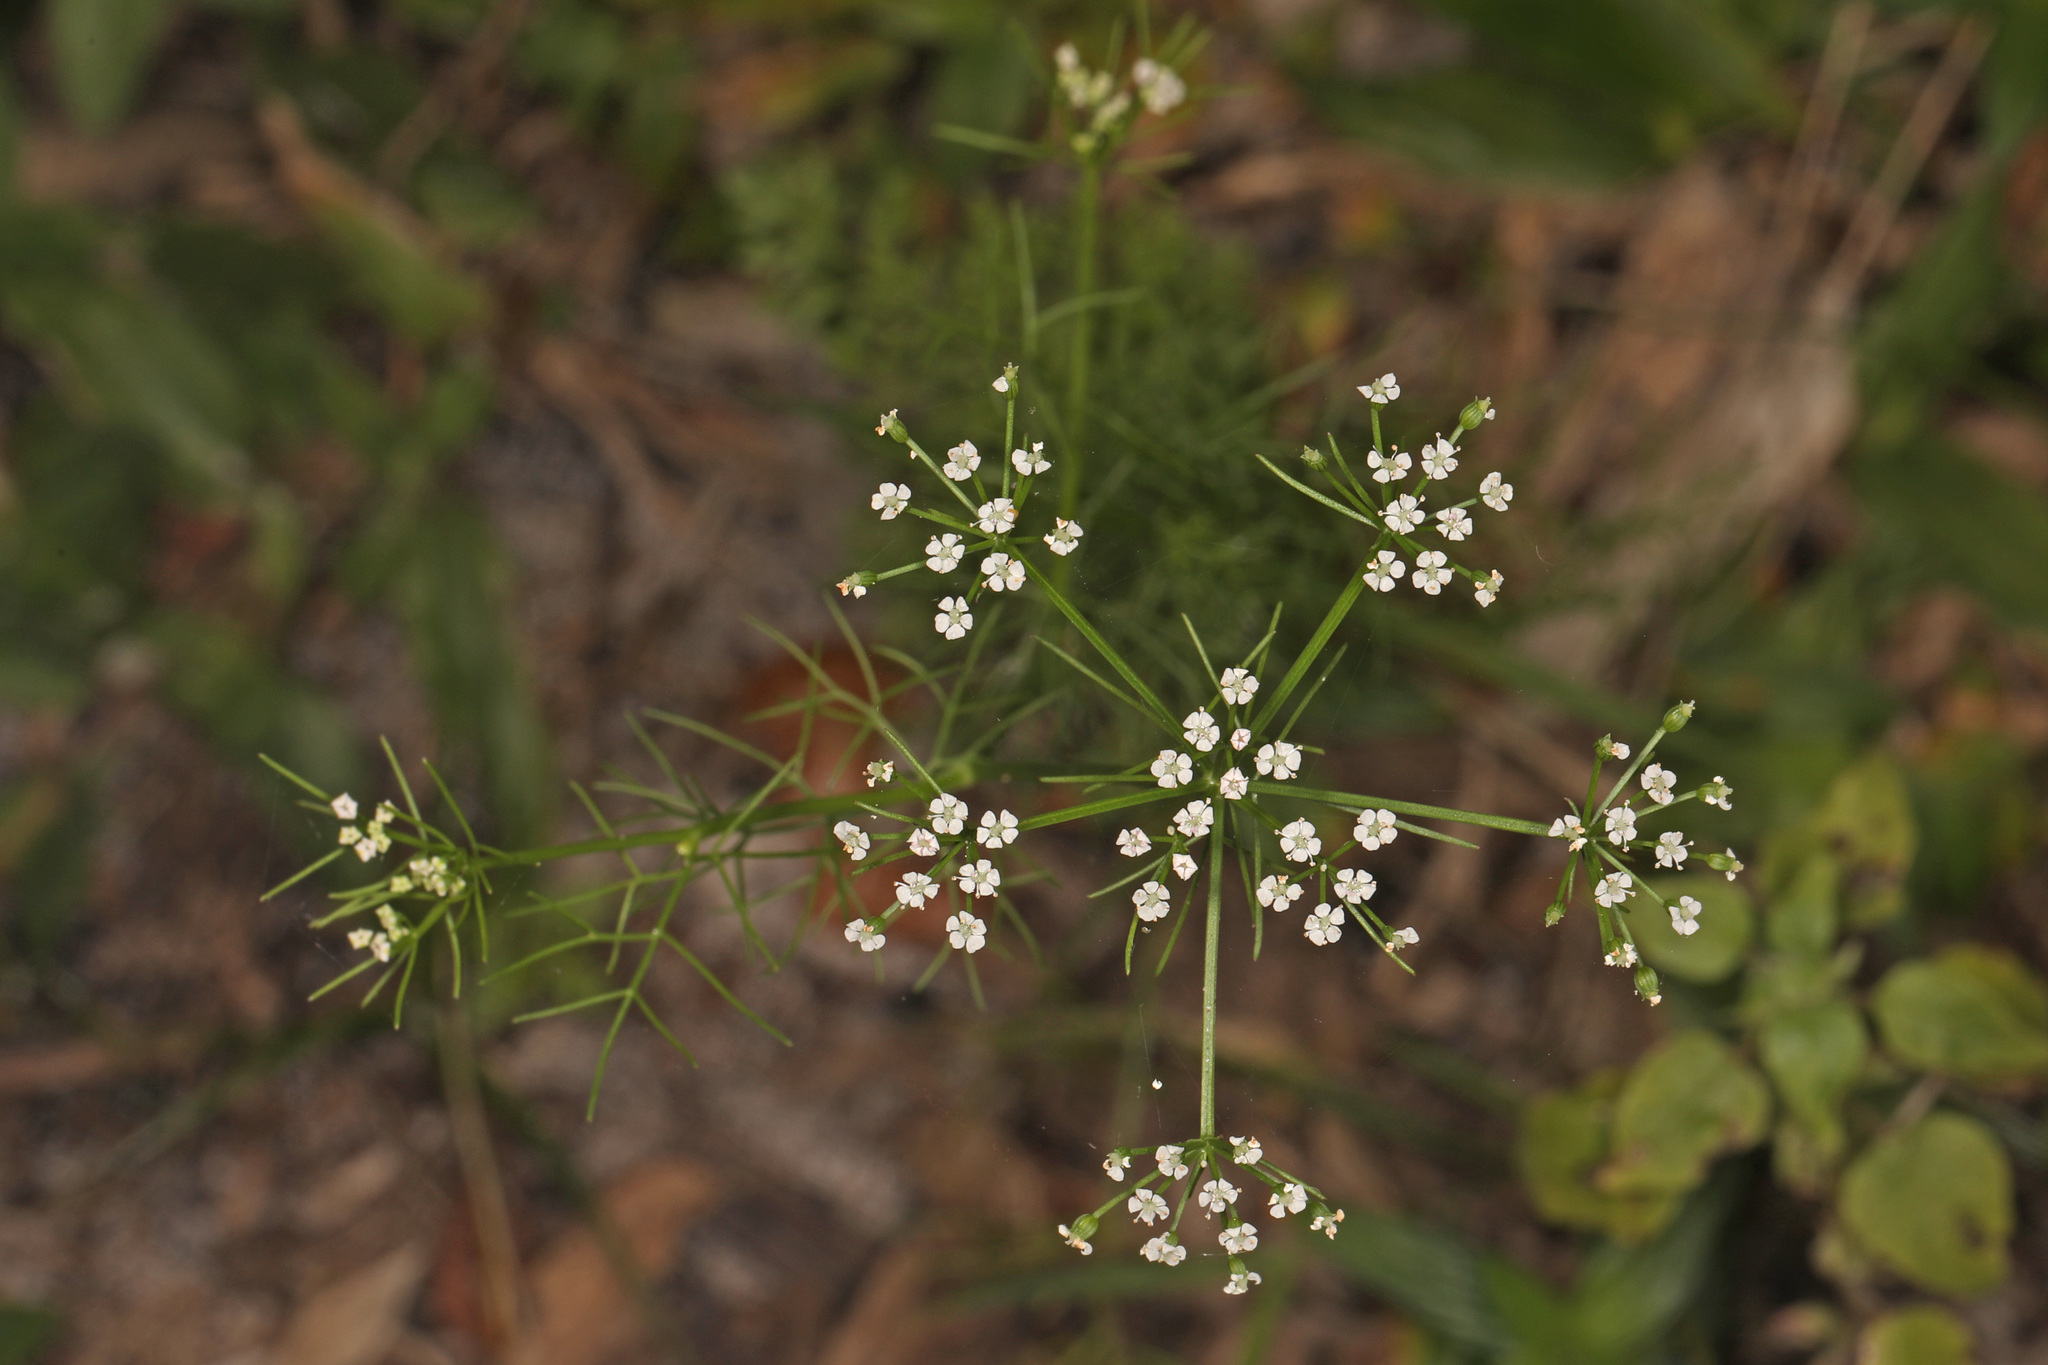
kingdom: Plantae
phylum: Tracheophyta
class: Magnoliopsida
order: Apiales
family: Apiaceae
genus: Ptilimnium
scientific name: Ptilimnium capillaceum
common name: Herbwilliam
